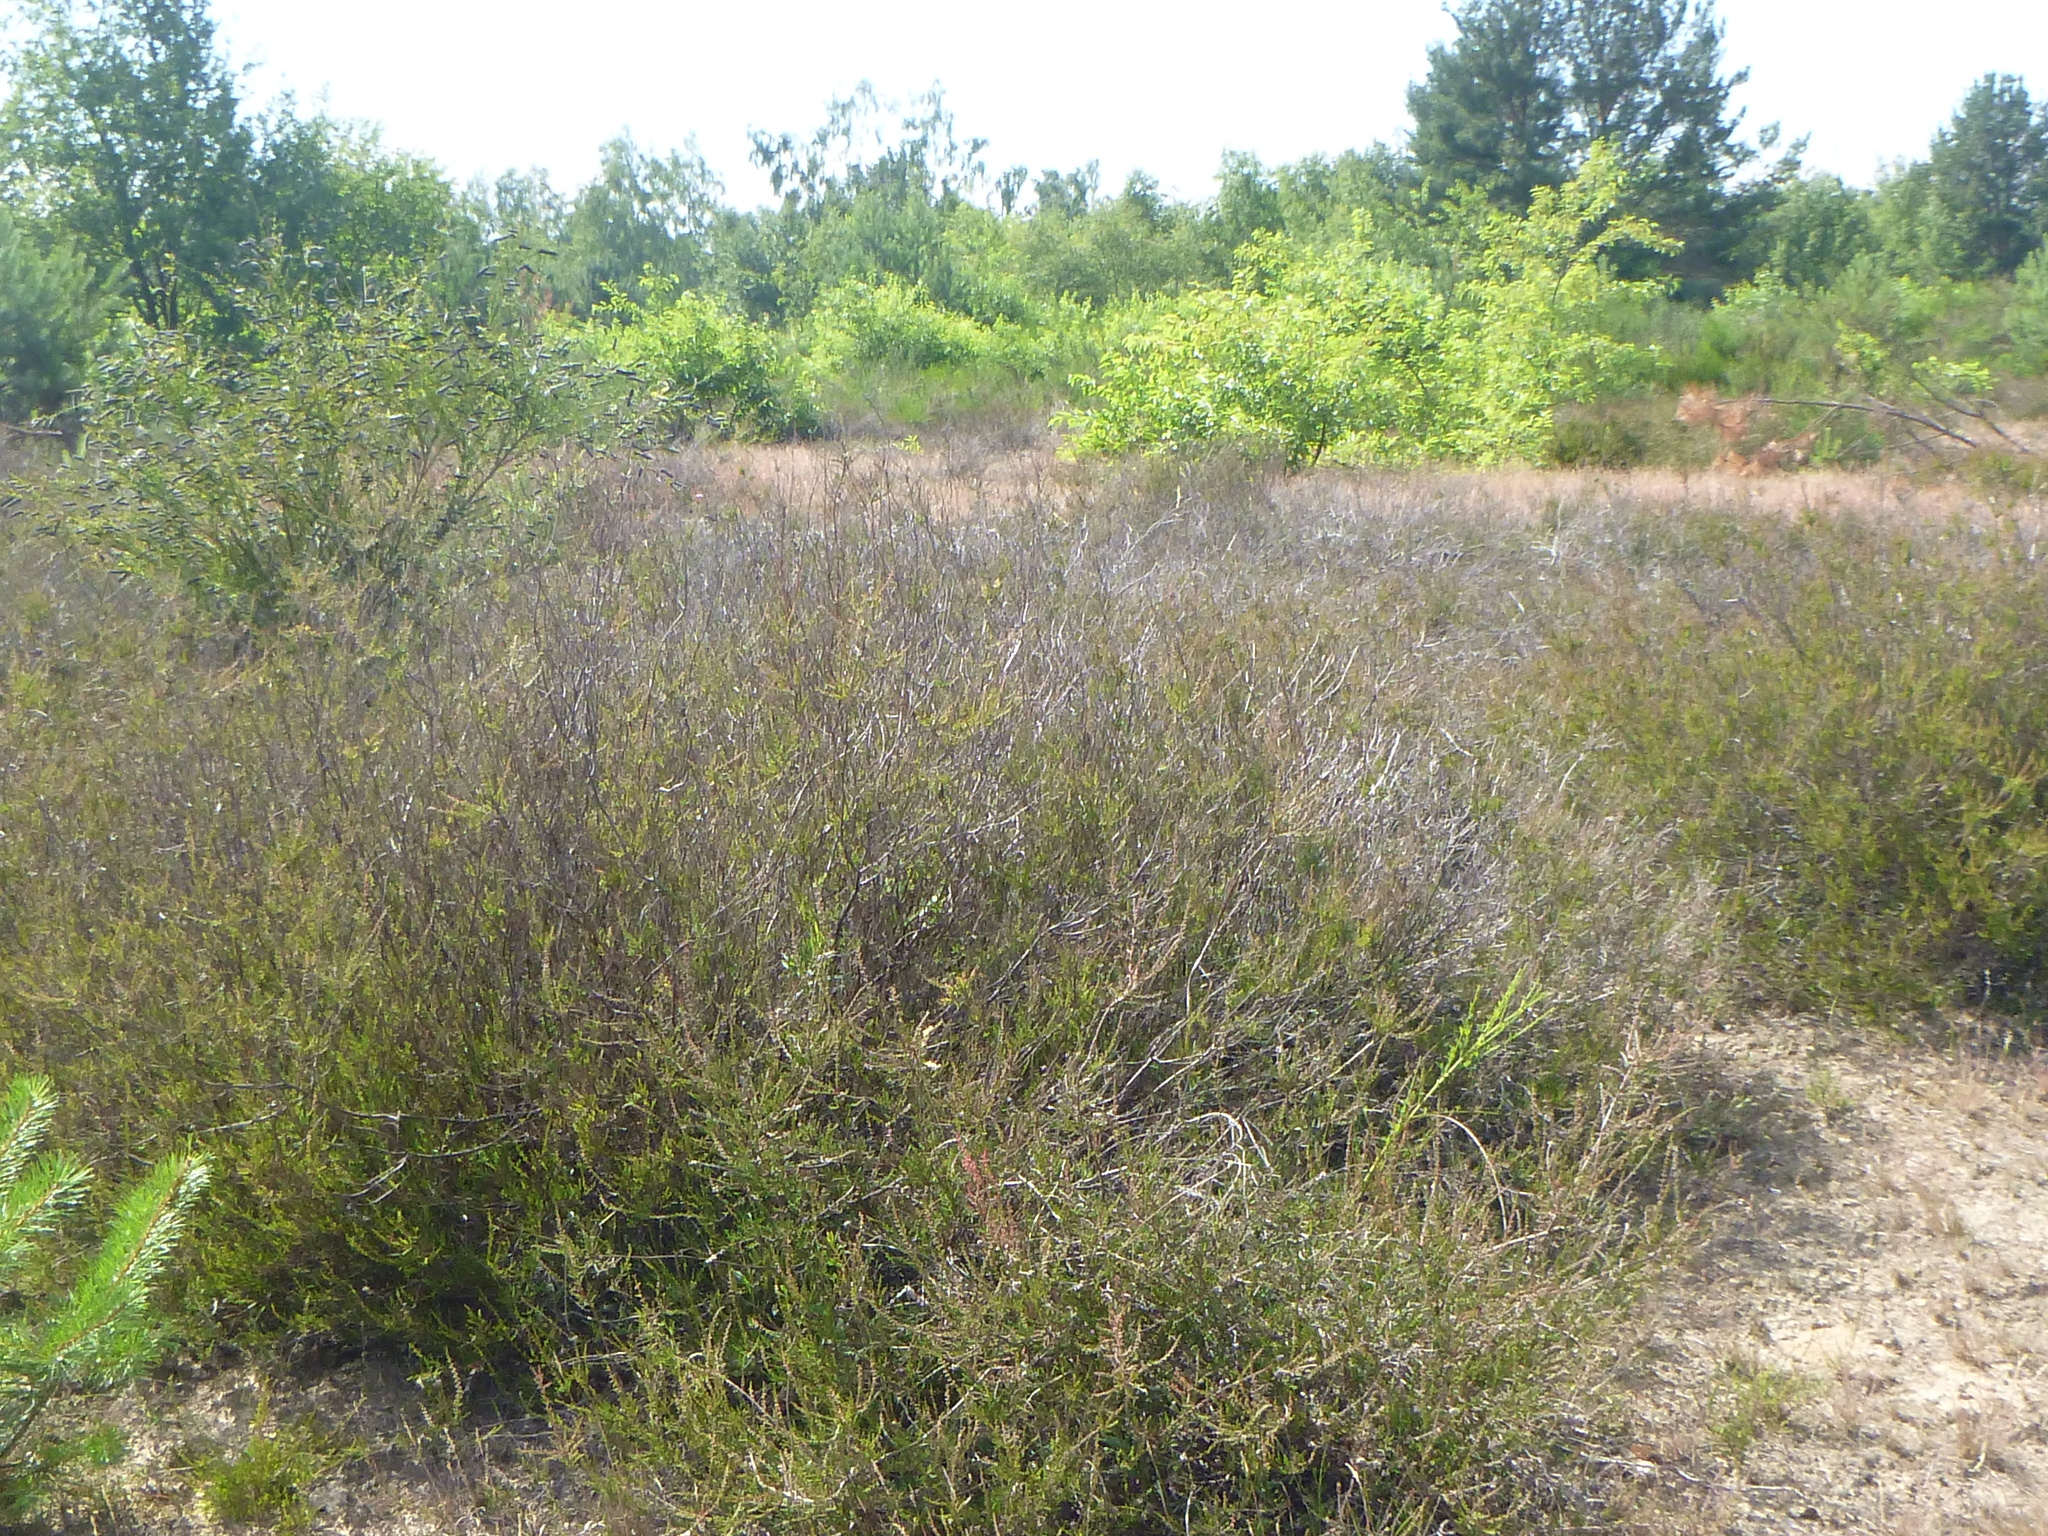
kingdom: Plantae
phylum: Tracheophyta
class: Magnoliopsida
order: Ericales
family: Ericaceae
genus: Calluna
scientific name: Calluna vulgaris
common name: Heather
